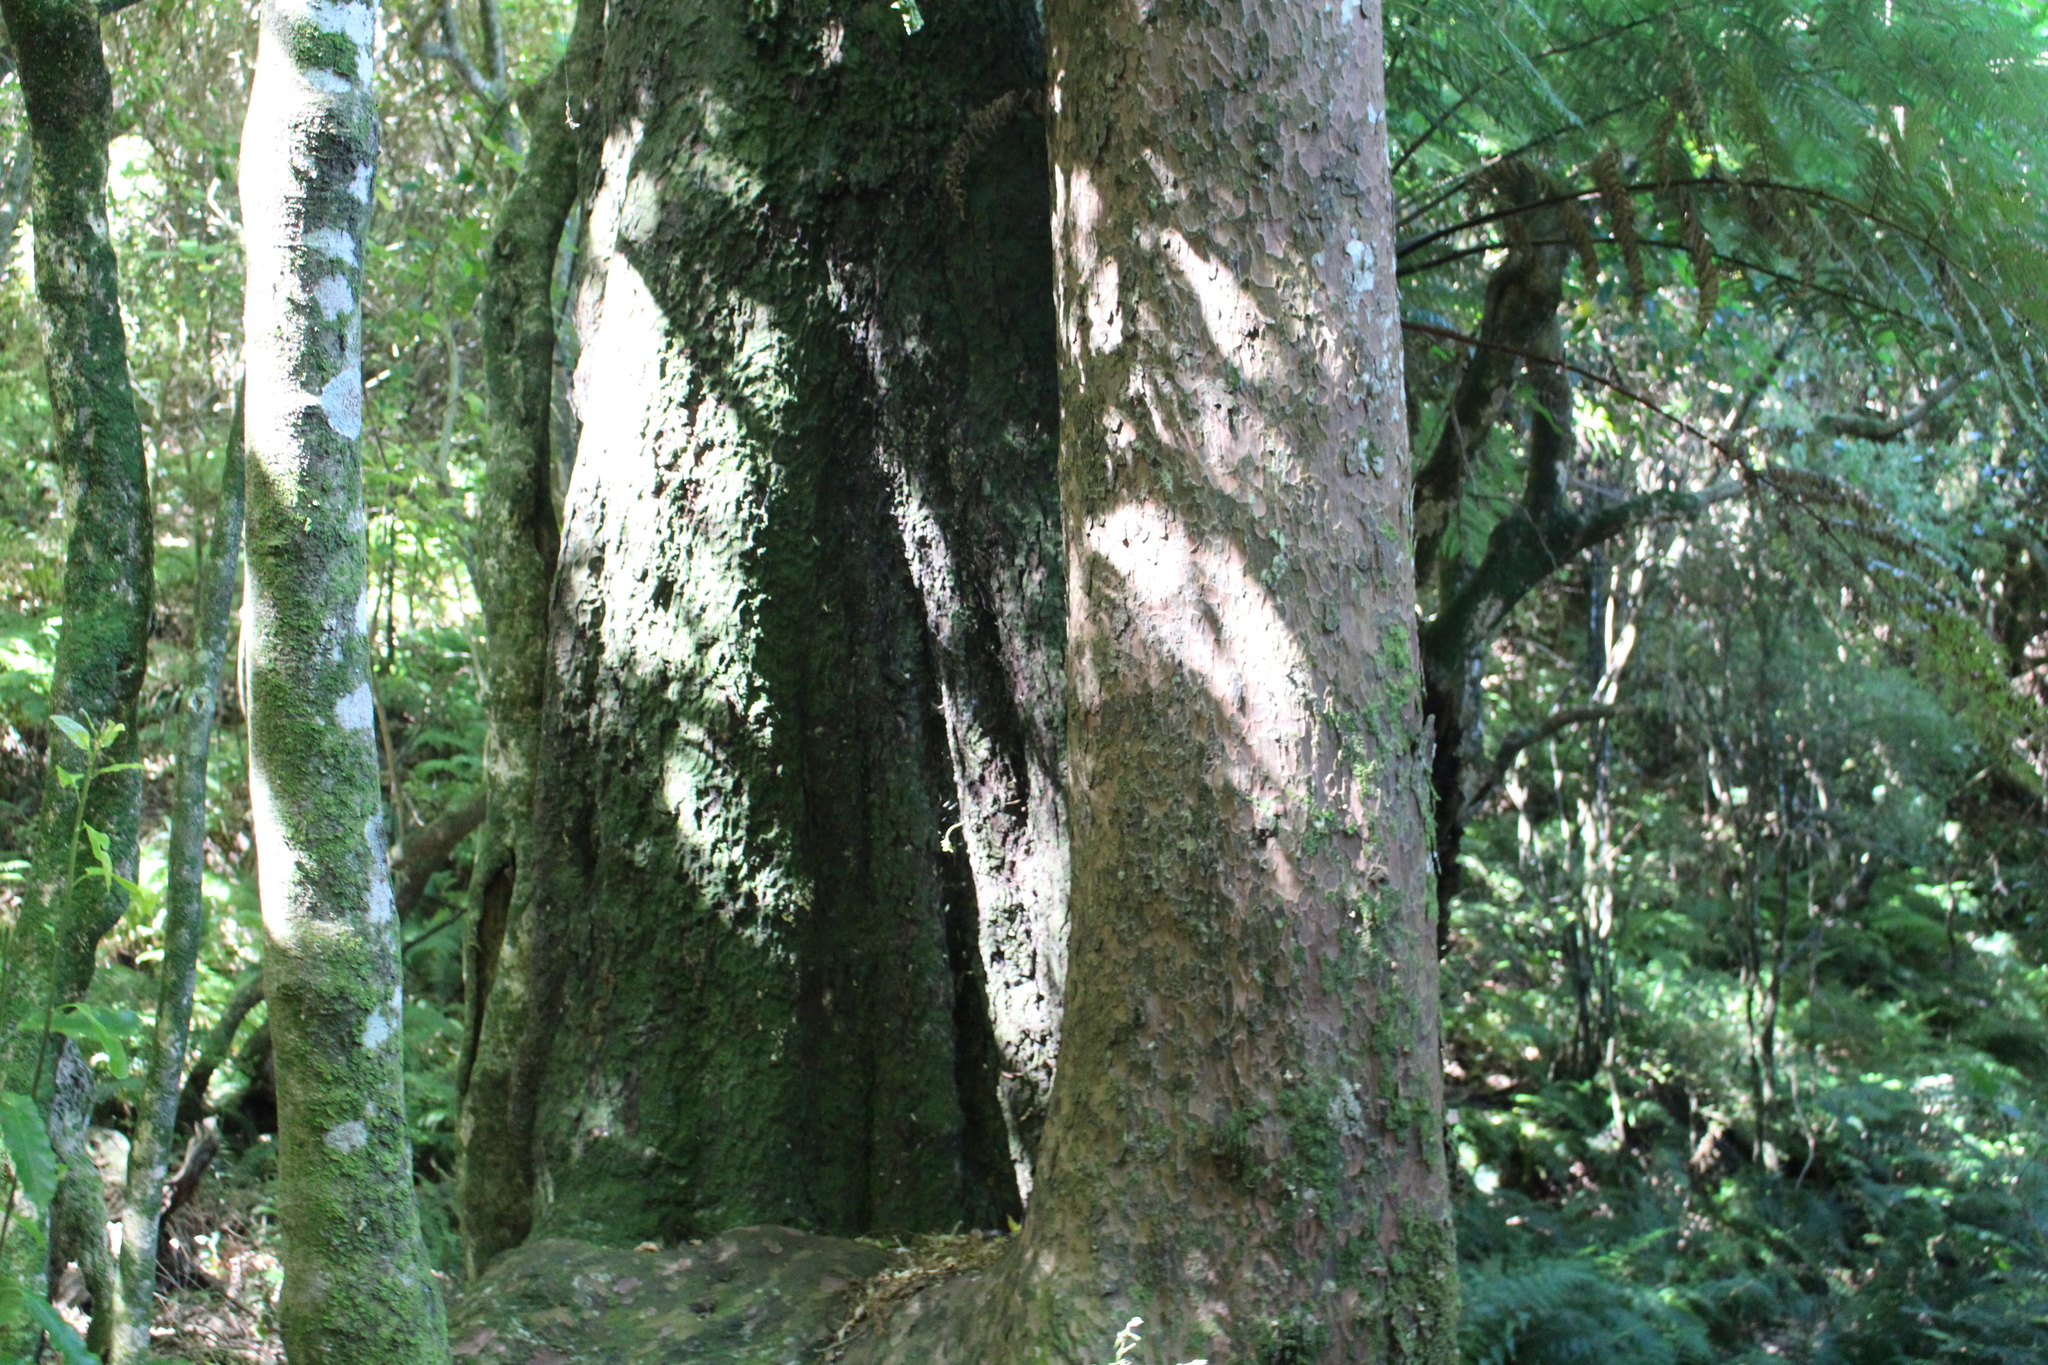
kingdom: Plantae
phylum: Tracheophyta
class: Pinopsida
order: Pinales
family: Podocarpaceae
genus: Prumnopitys
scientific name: Prumnopitys taxifolia
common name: Matai
